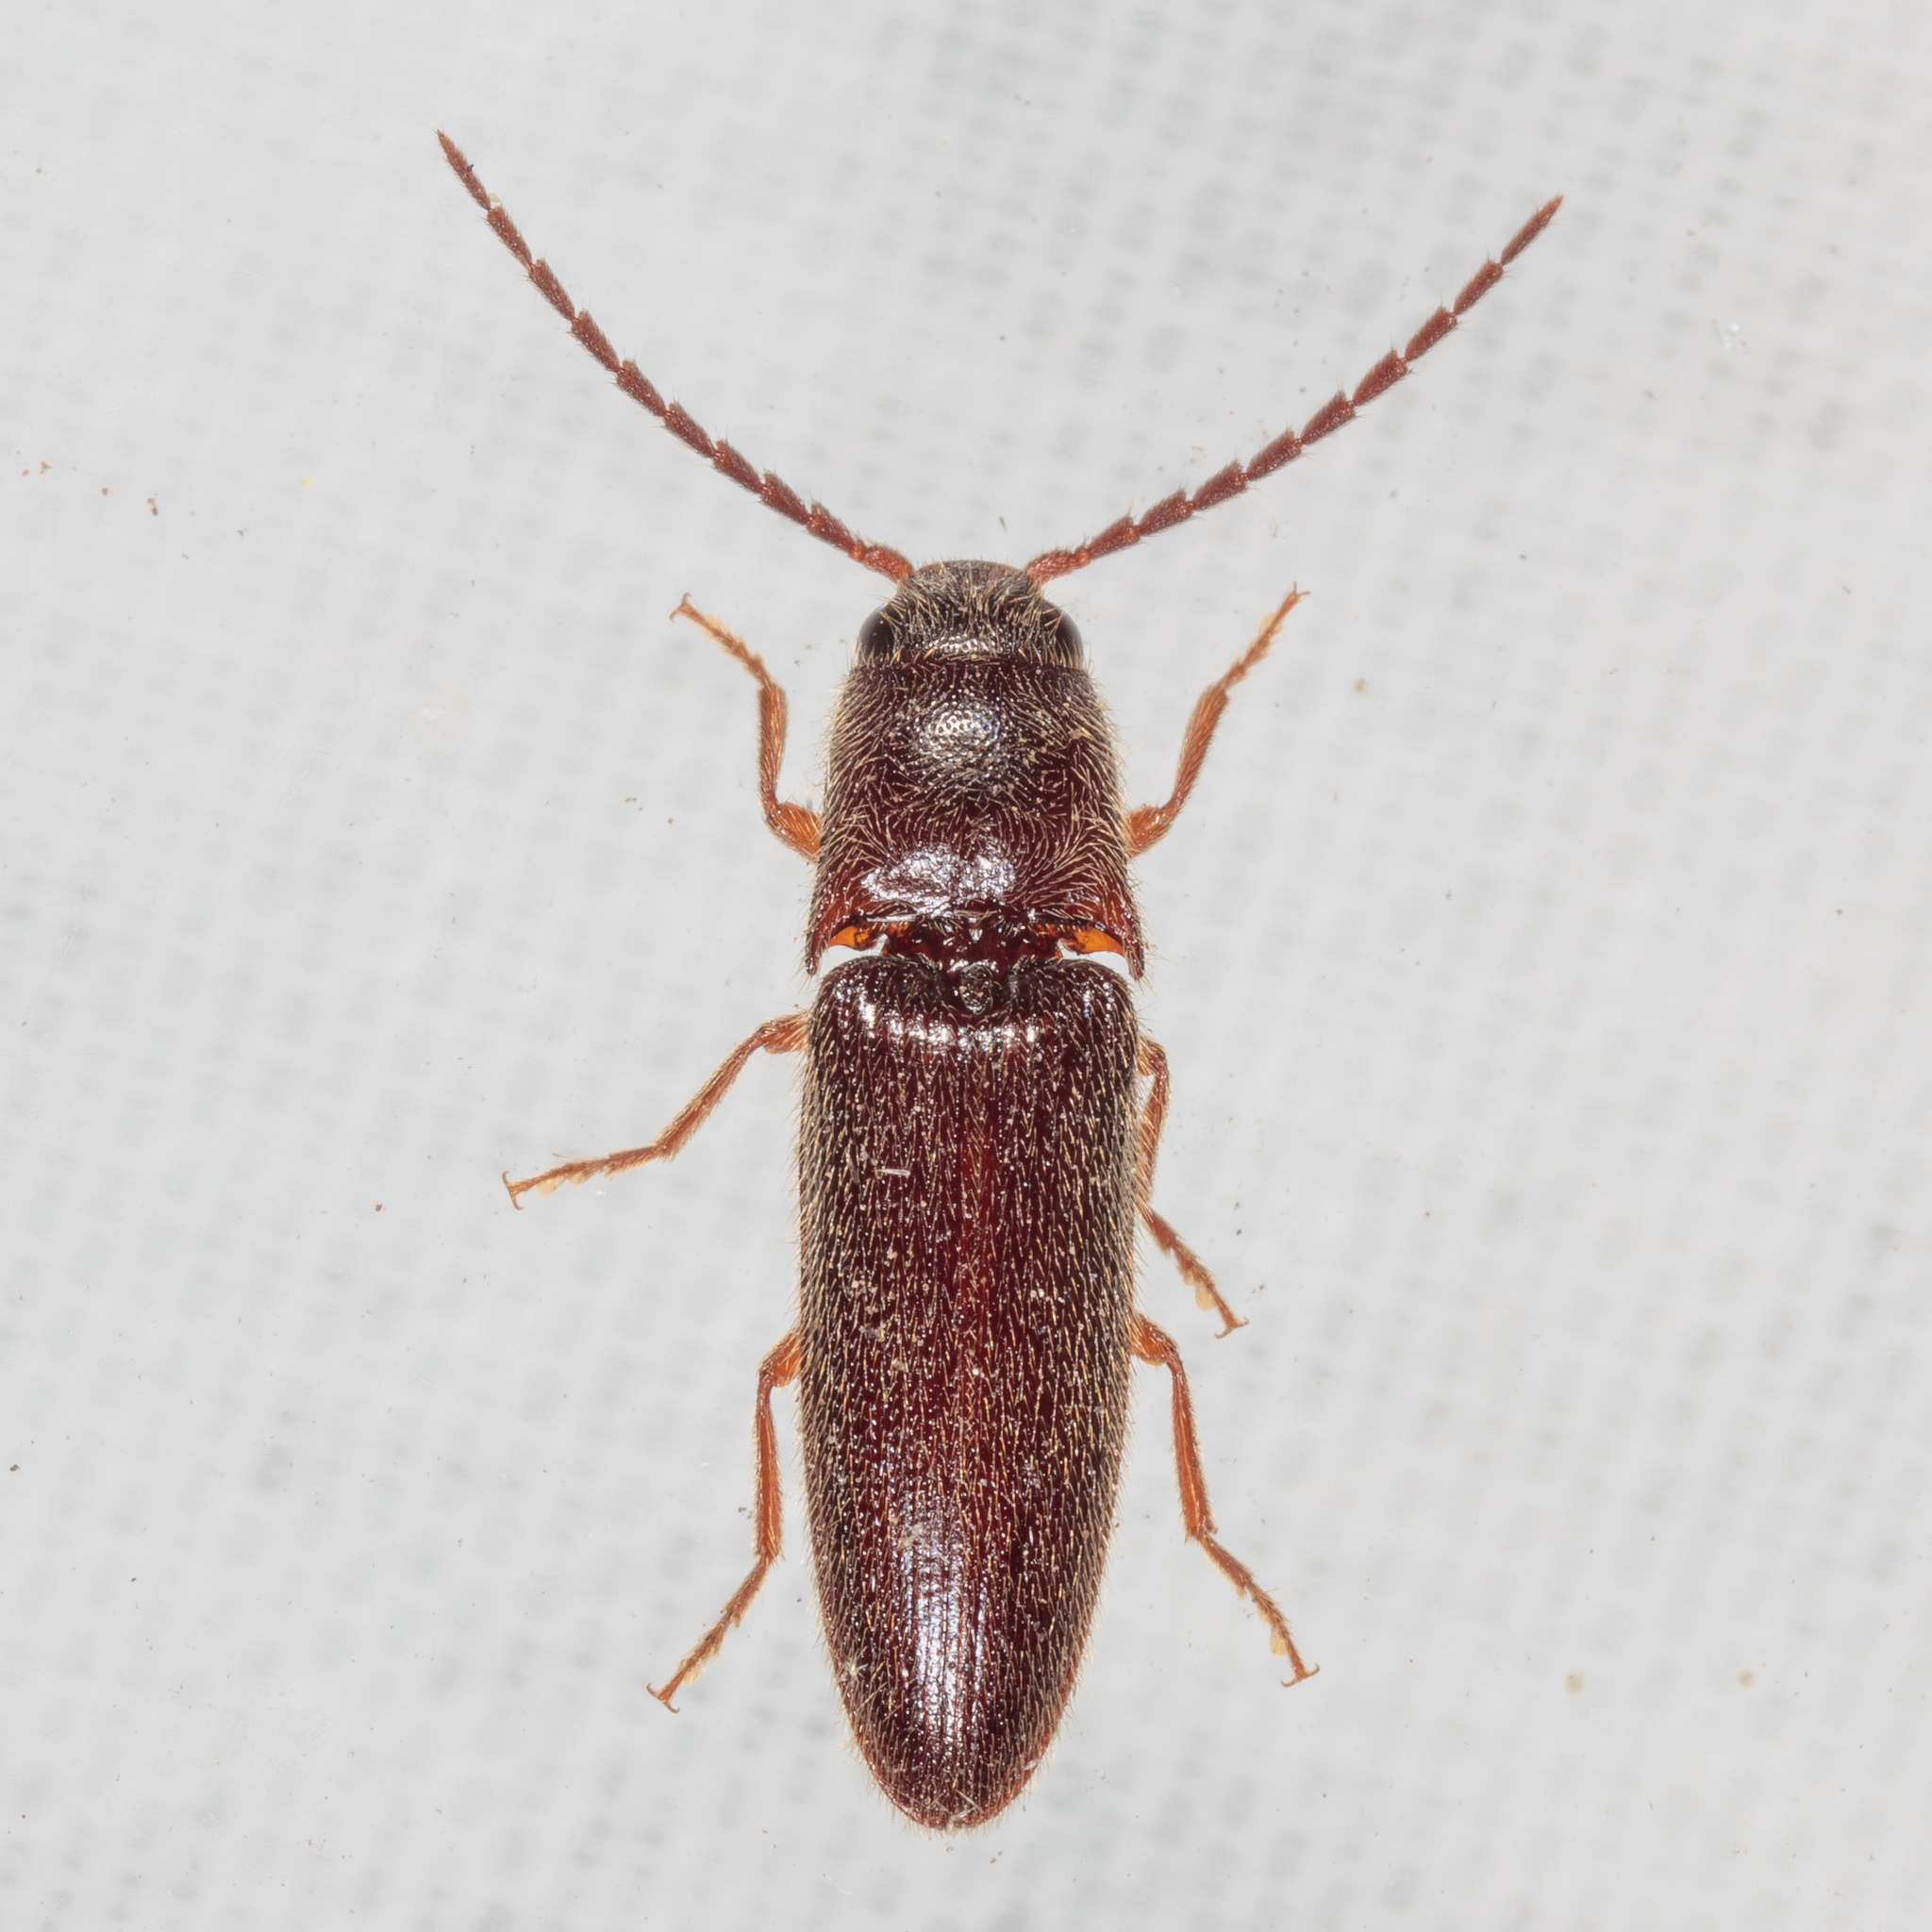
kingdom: Animalia
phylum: Arthropoda
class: Insecta
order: Coleoptera
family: Elateridae
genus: Dipropus
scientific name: Dipropus
